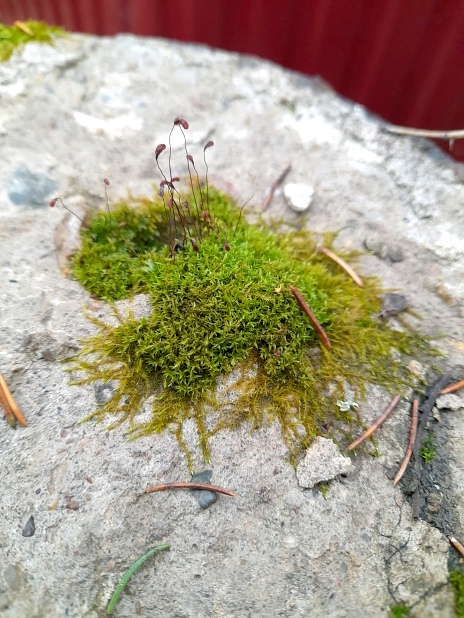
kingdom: Plantae
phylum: Bryophyta
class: Bryopsida
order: Funariales
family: Funariaceae
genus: Funaria
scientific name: Funaria hygrometrica
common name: Common cord moss
